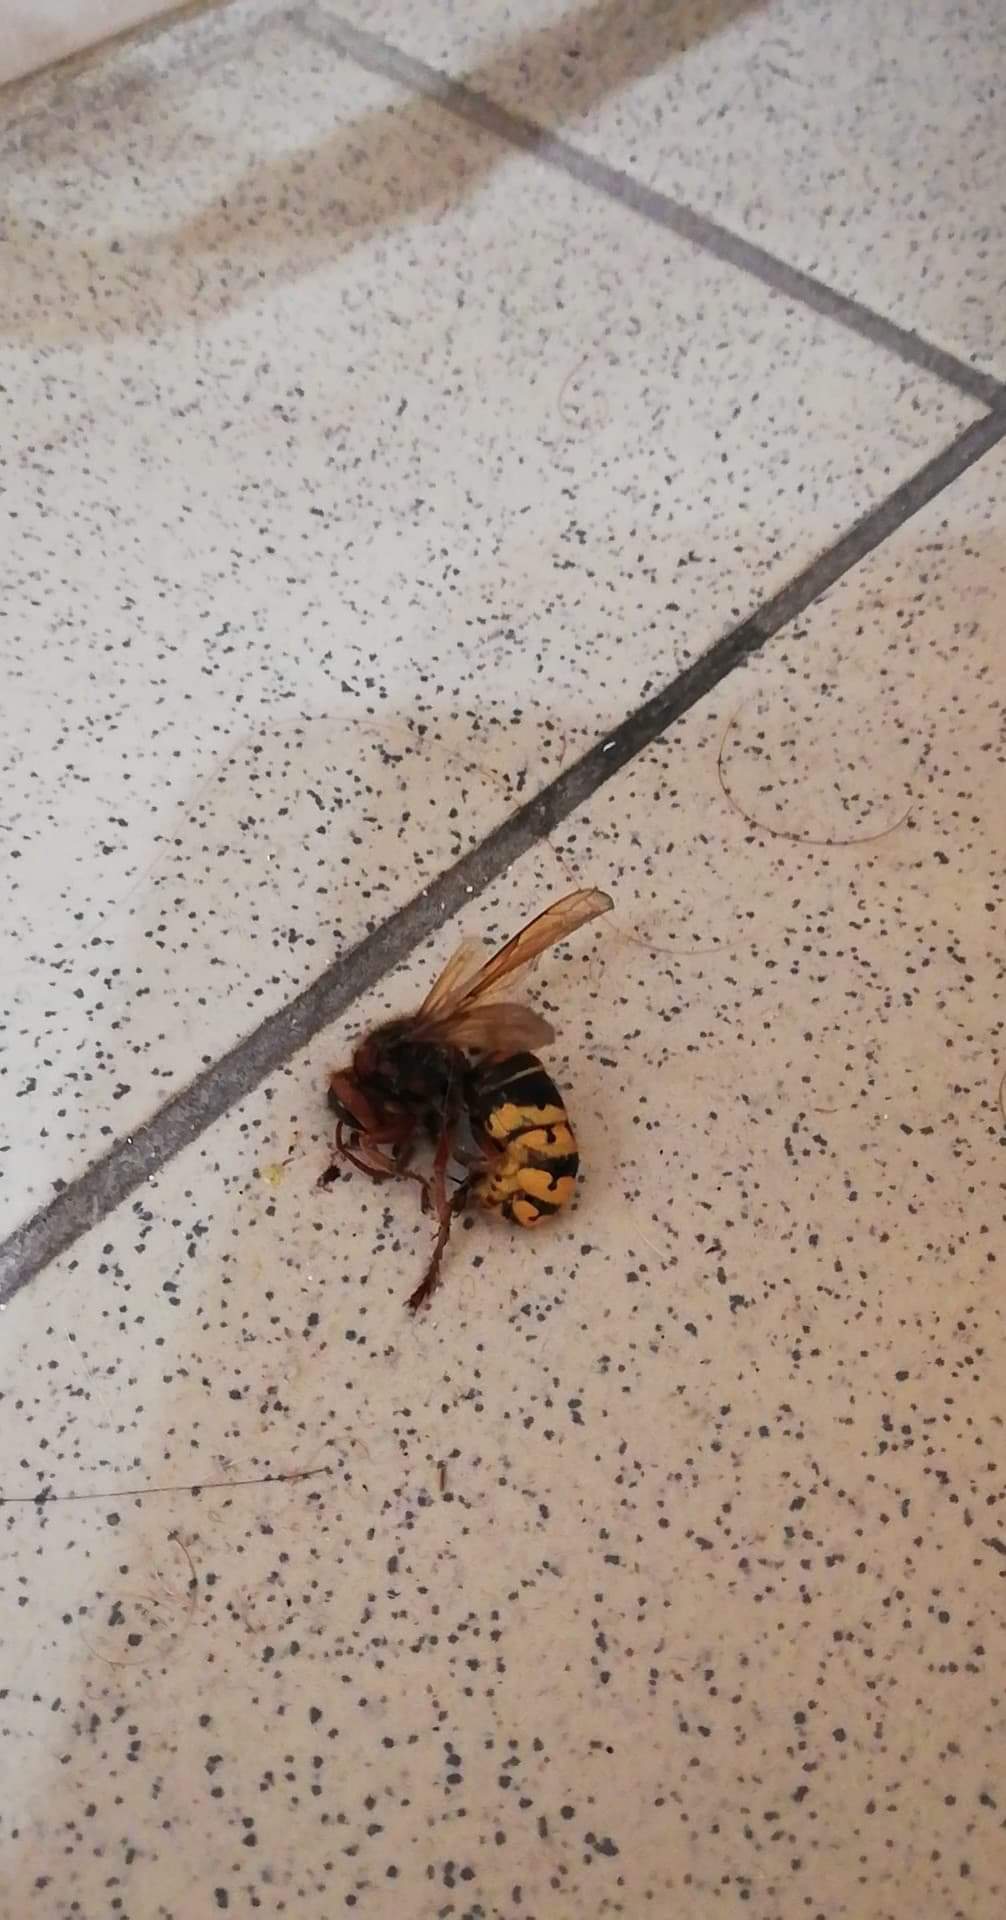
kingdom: Animalia
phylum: Arthropoda
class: Insecta
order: Hymenoptera
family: Vespidae
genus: Vespa
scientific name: Vespa crabro
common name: Hornet
